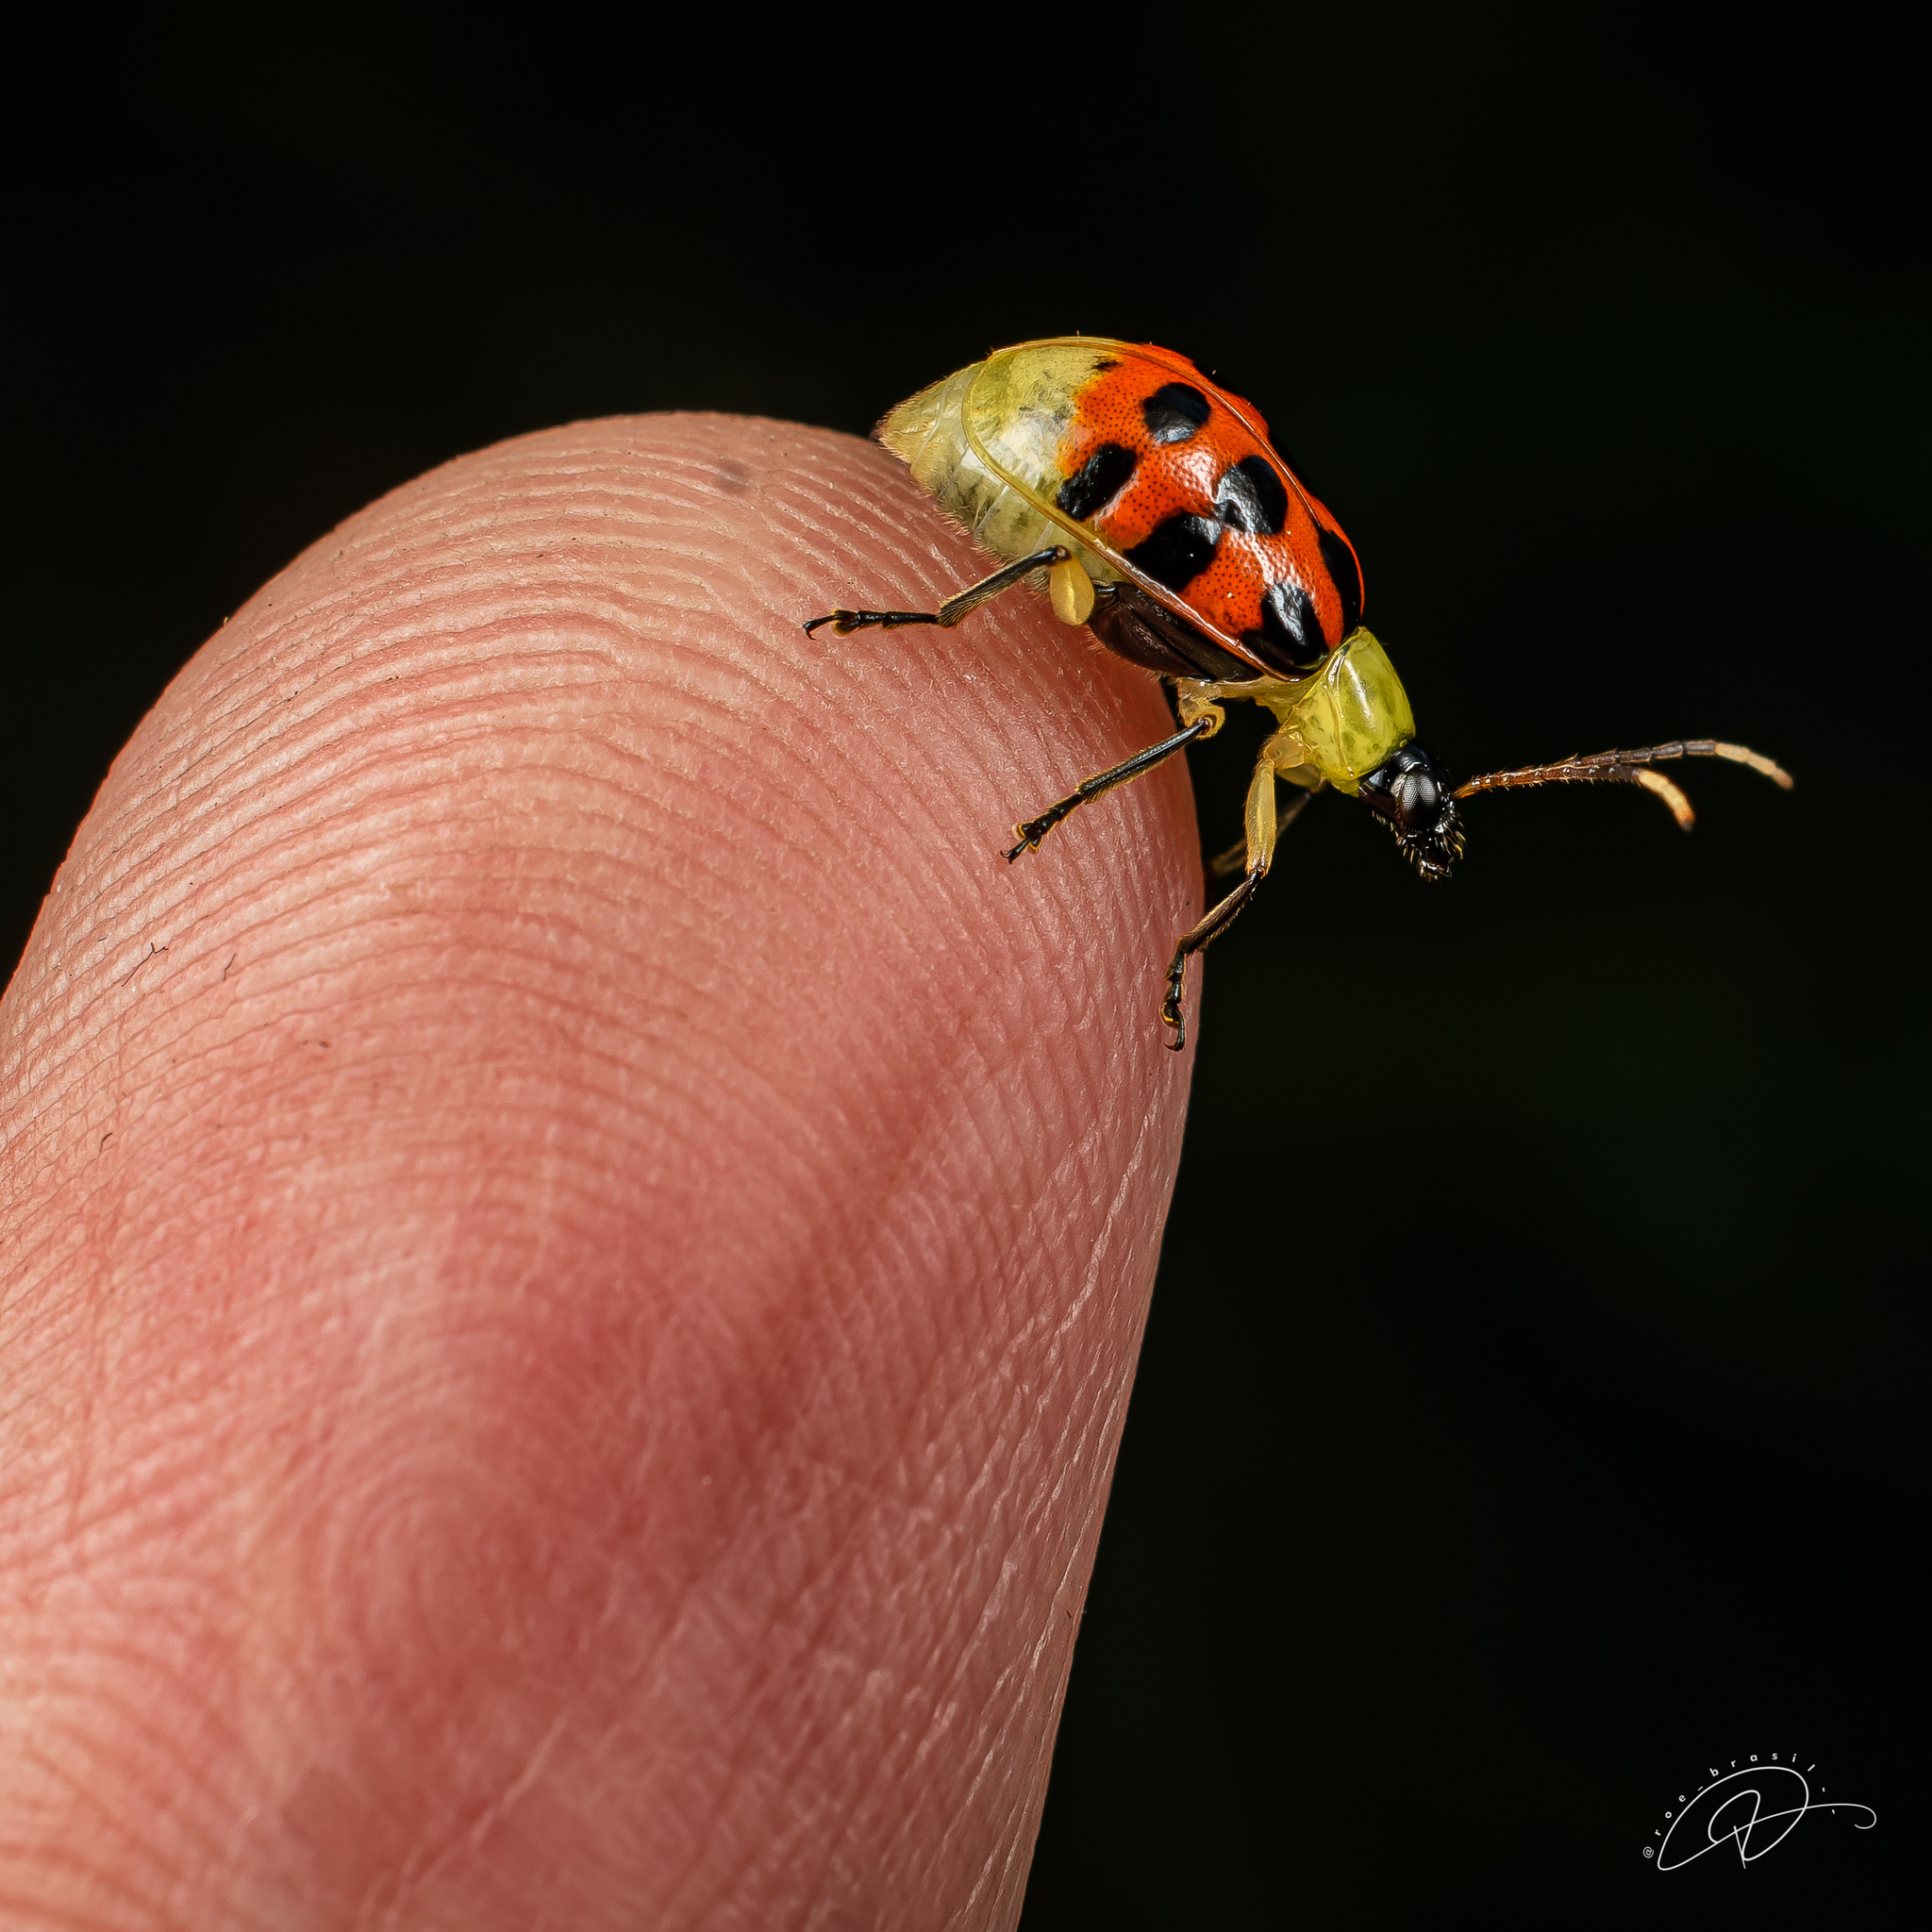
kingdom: Animalia
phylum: Arthropoda
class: Insecta
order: Coleoptera
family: Chrysomelidae
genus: Diabrotica
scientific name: Diabrotica limitata
